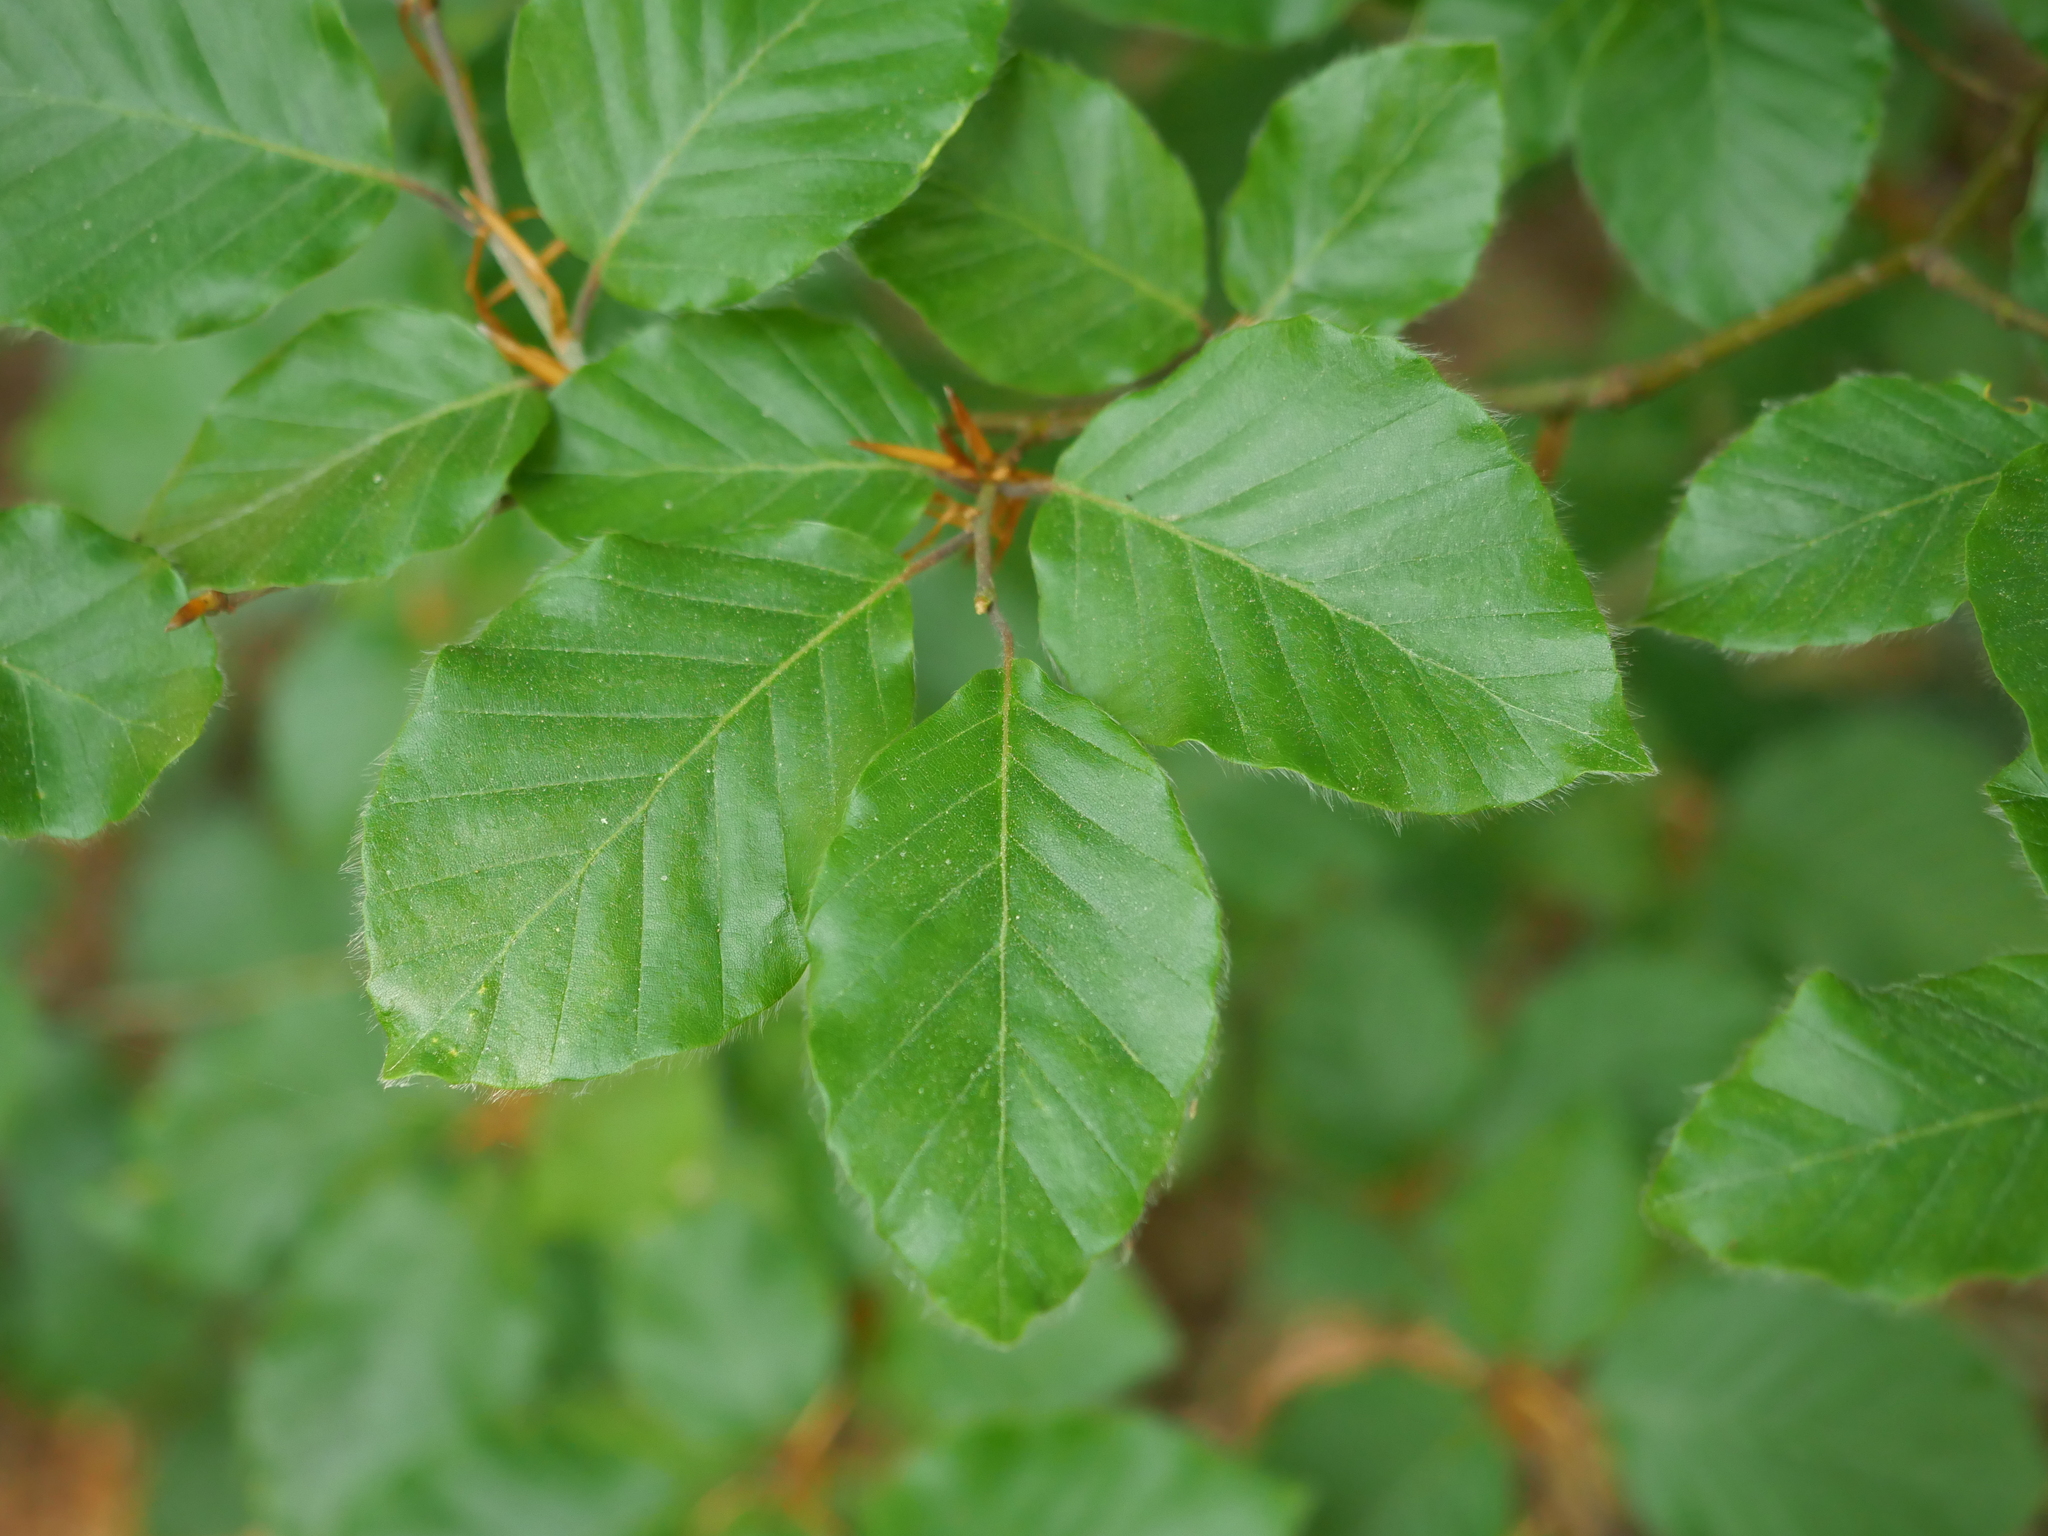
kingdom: Plantae
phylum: Tracheophyta
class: Magnoliopsida
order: Fagales
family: Fagaceae
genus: Fagus
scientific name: Fagus sylvatica
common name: Beech
